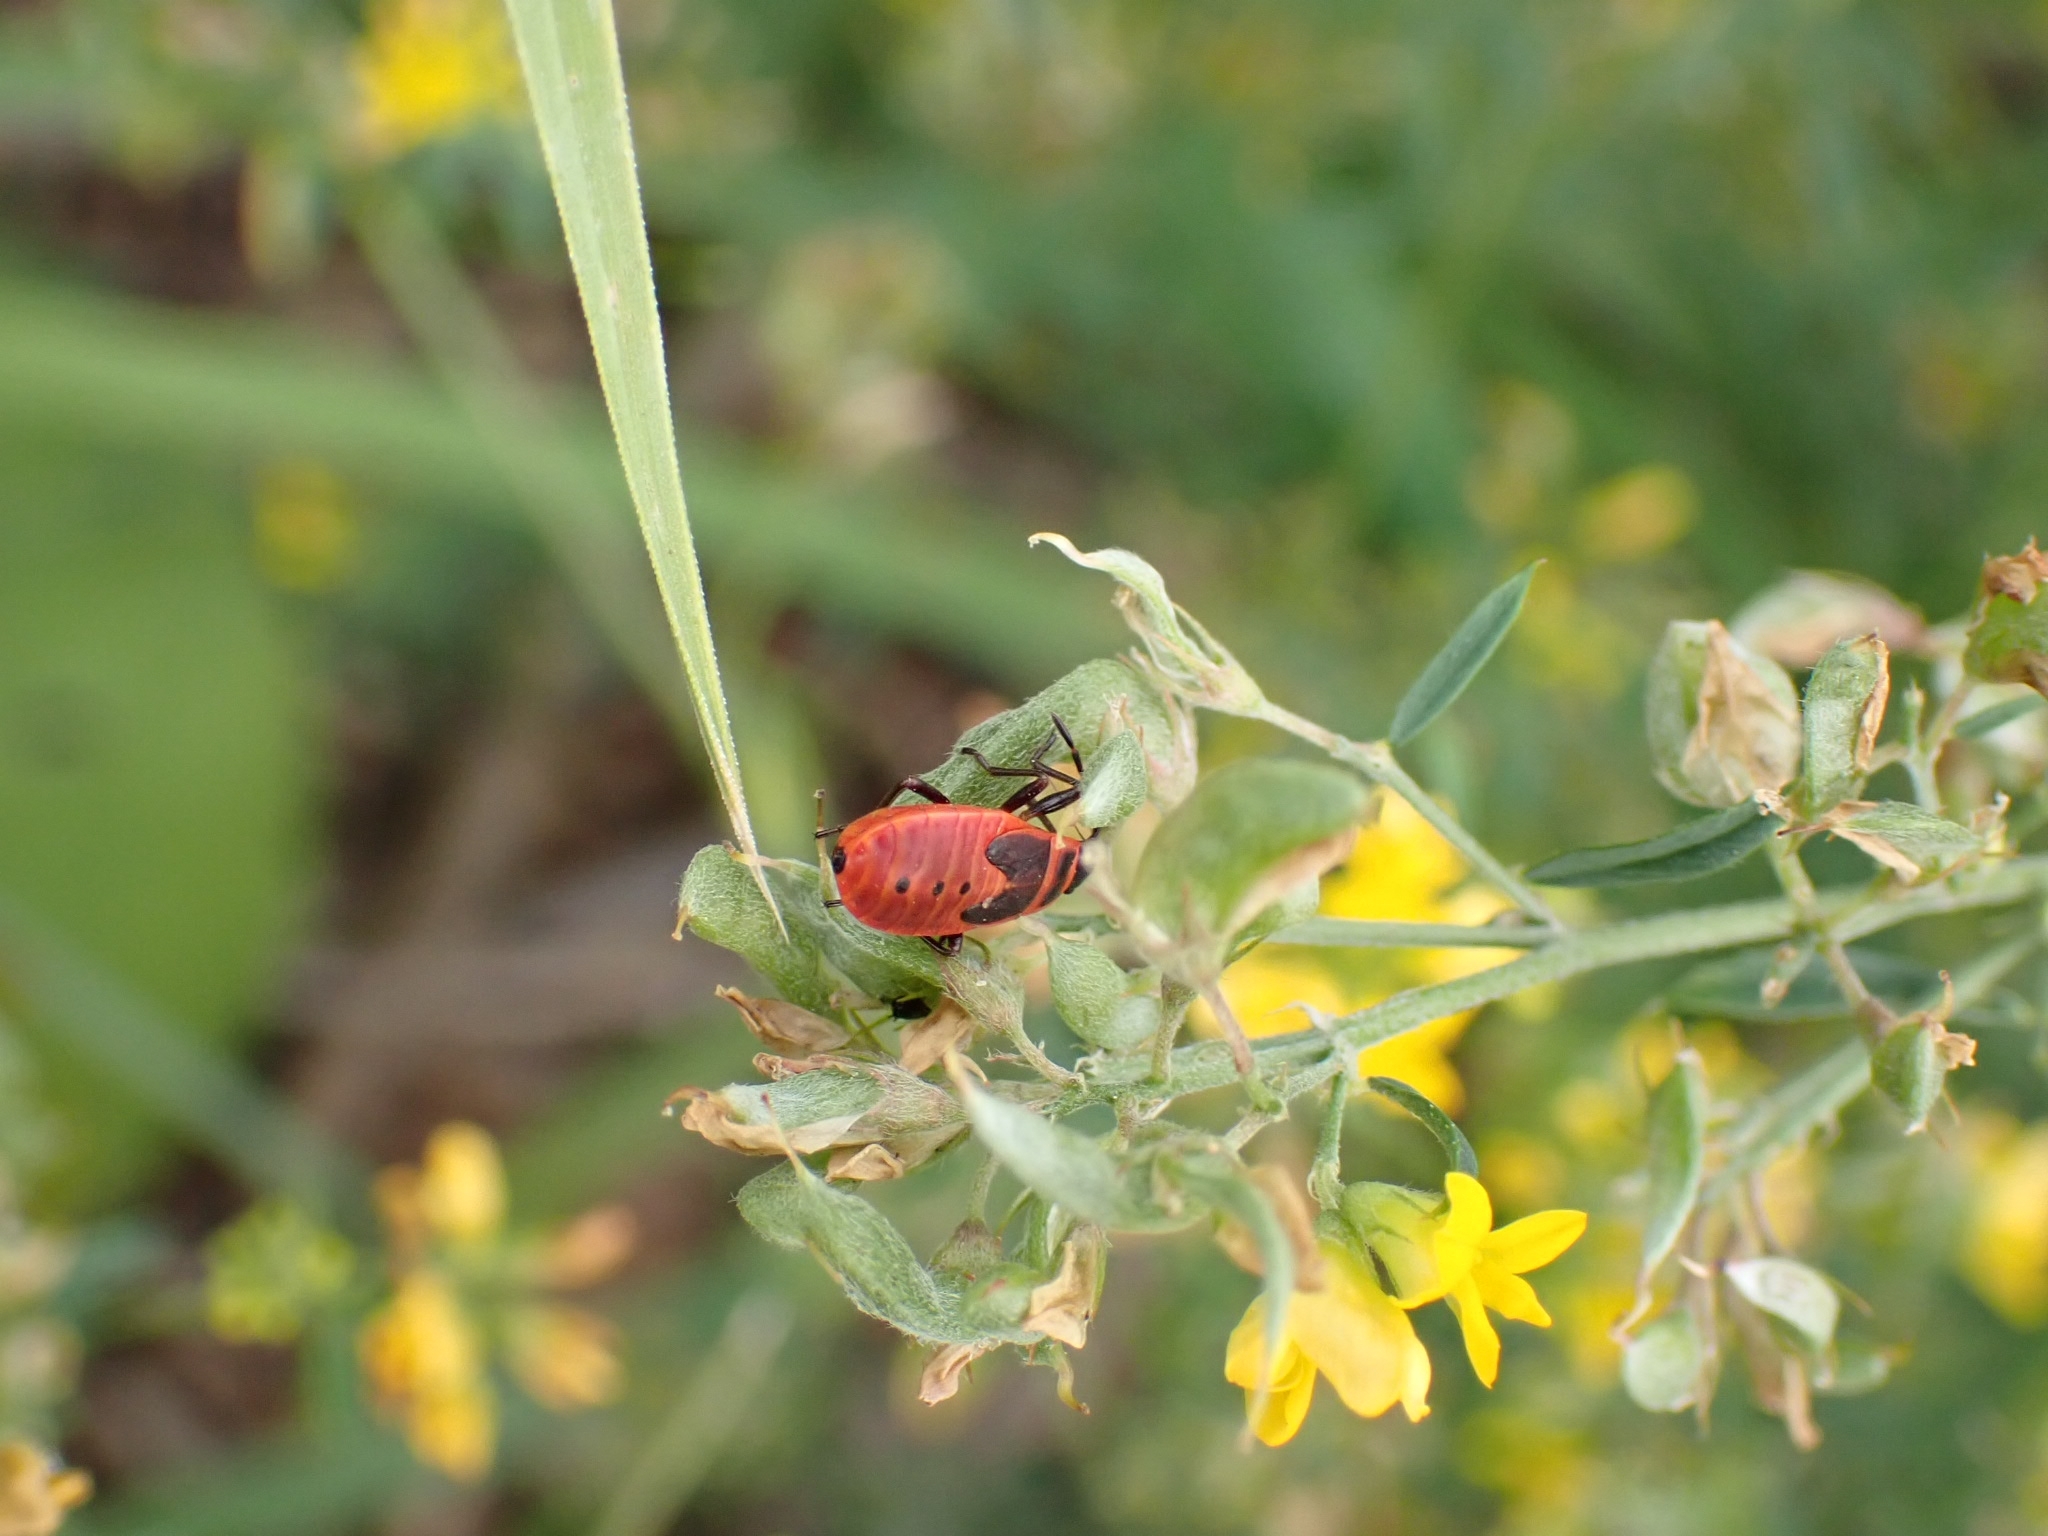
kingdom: Animalia
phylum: Arthropoda
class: Insecta
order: Hemiptera
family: Pyrrhocoridae
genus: Pyrrhocoris
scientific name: Pyrrhocoris apterus
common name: Firebug
